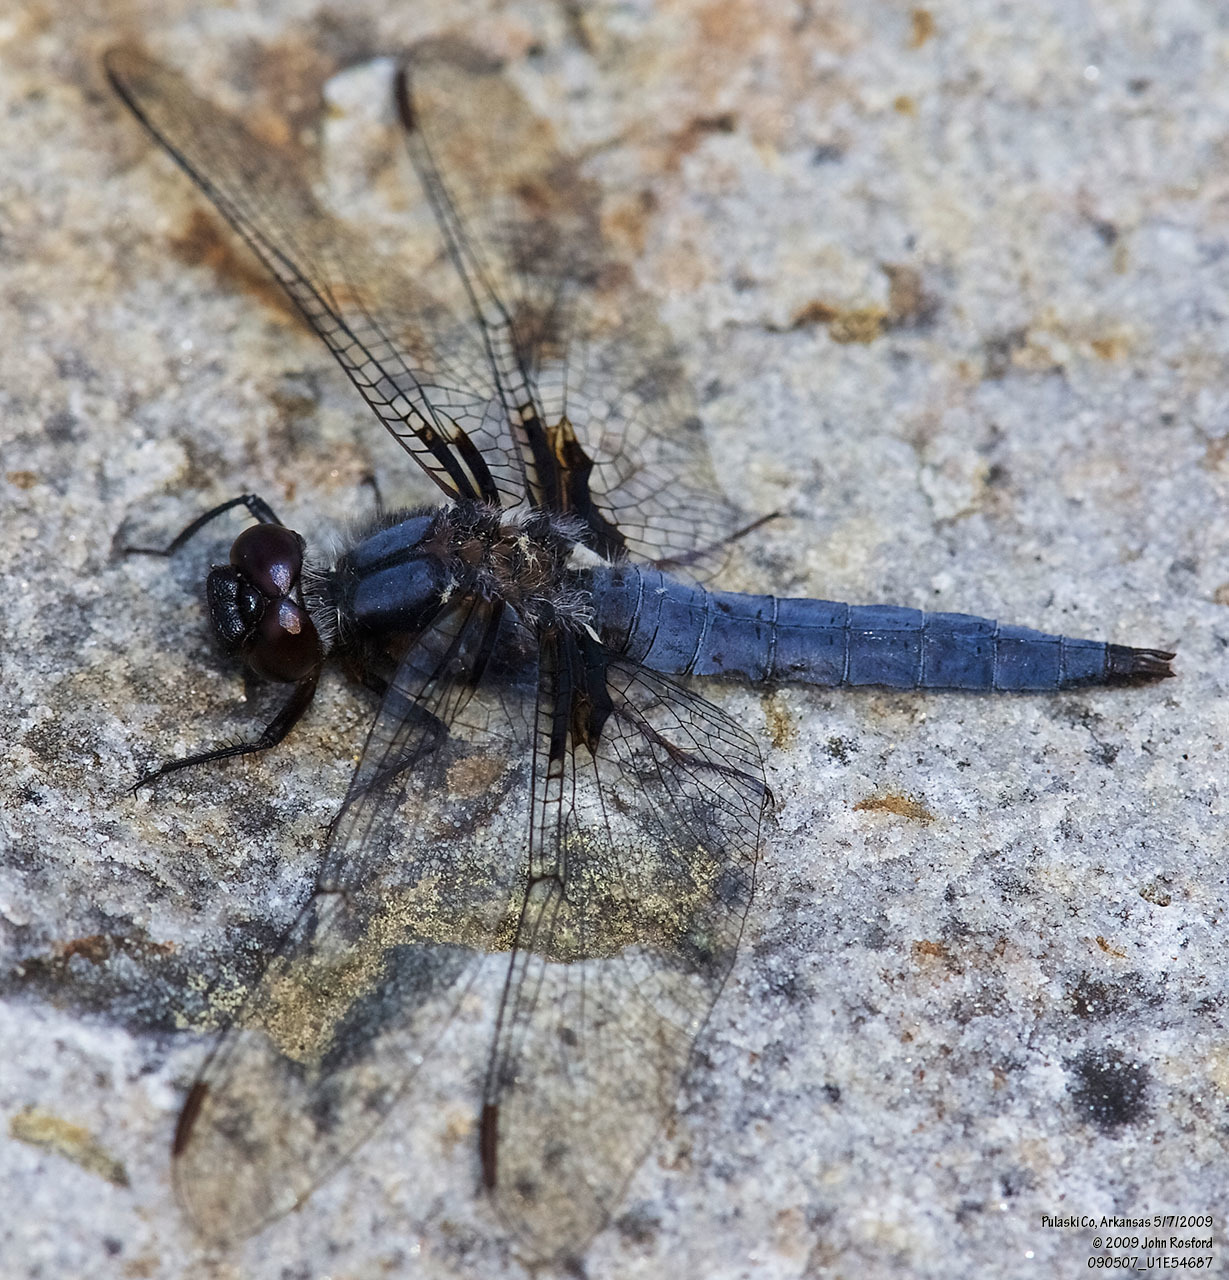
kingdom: Animalia
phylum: Arthropoda
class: Insecta
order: Odonata
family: Libellulidae
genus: Ladona
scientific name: Ladona deplanata
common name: Blue corporal
